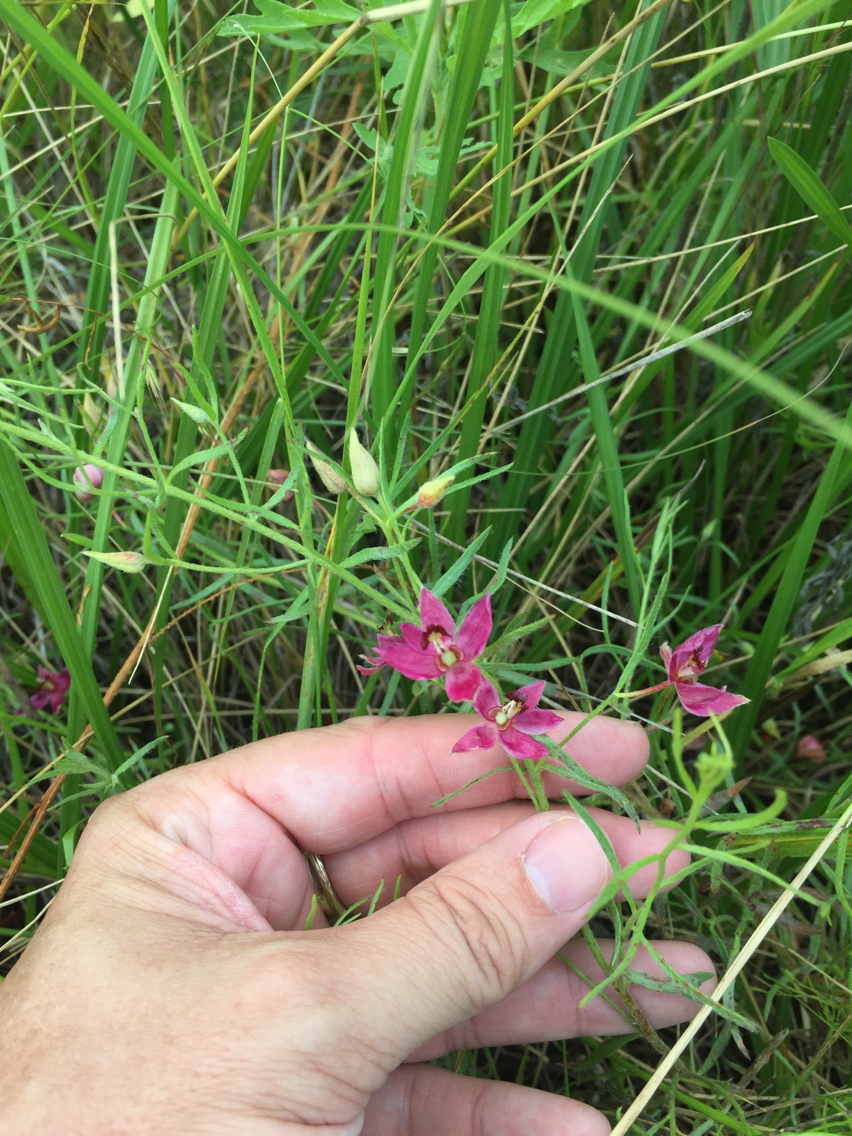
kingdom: Plantae
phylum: Tracheophyta
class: Magnoliopsida
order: Zygophyllales
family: Krameriaceae
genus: Krameria
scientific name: Krameria lanceolata
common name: Ratany
